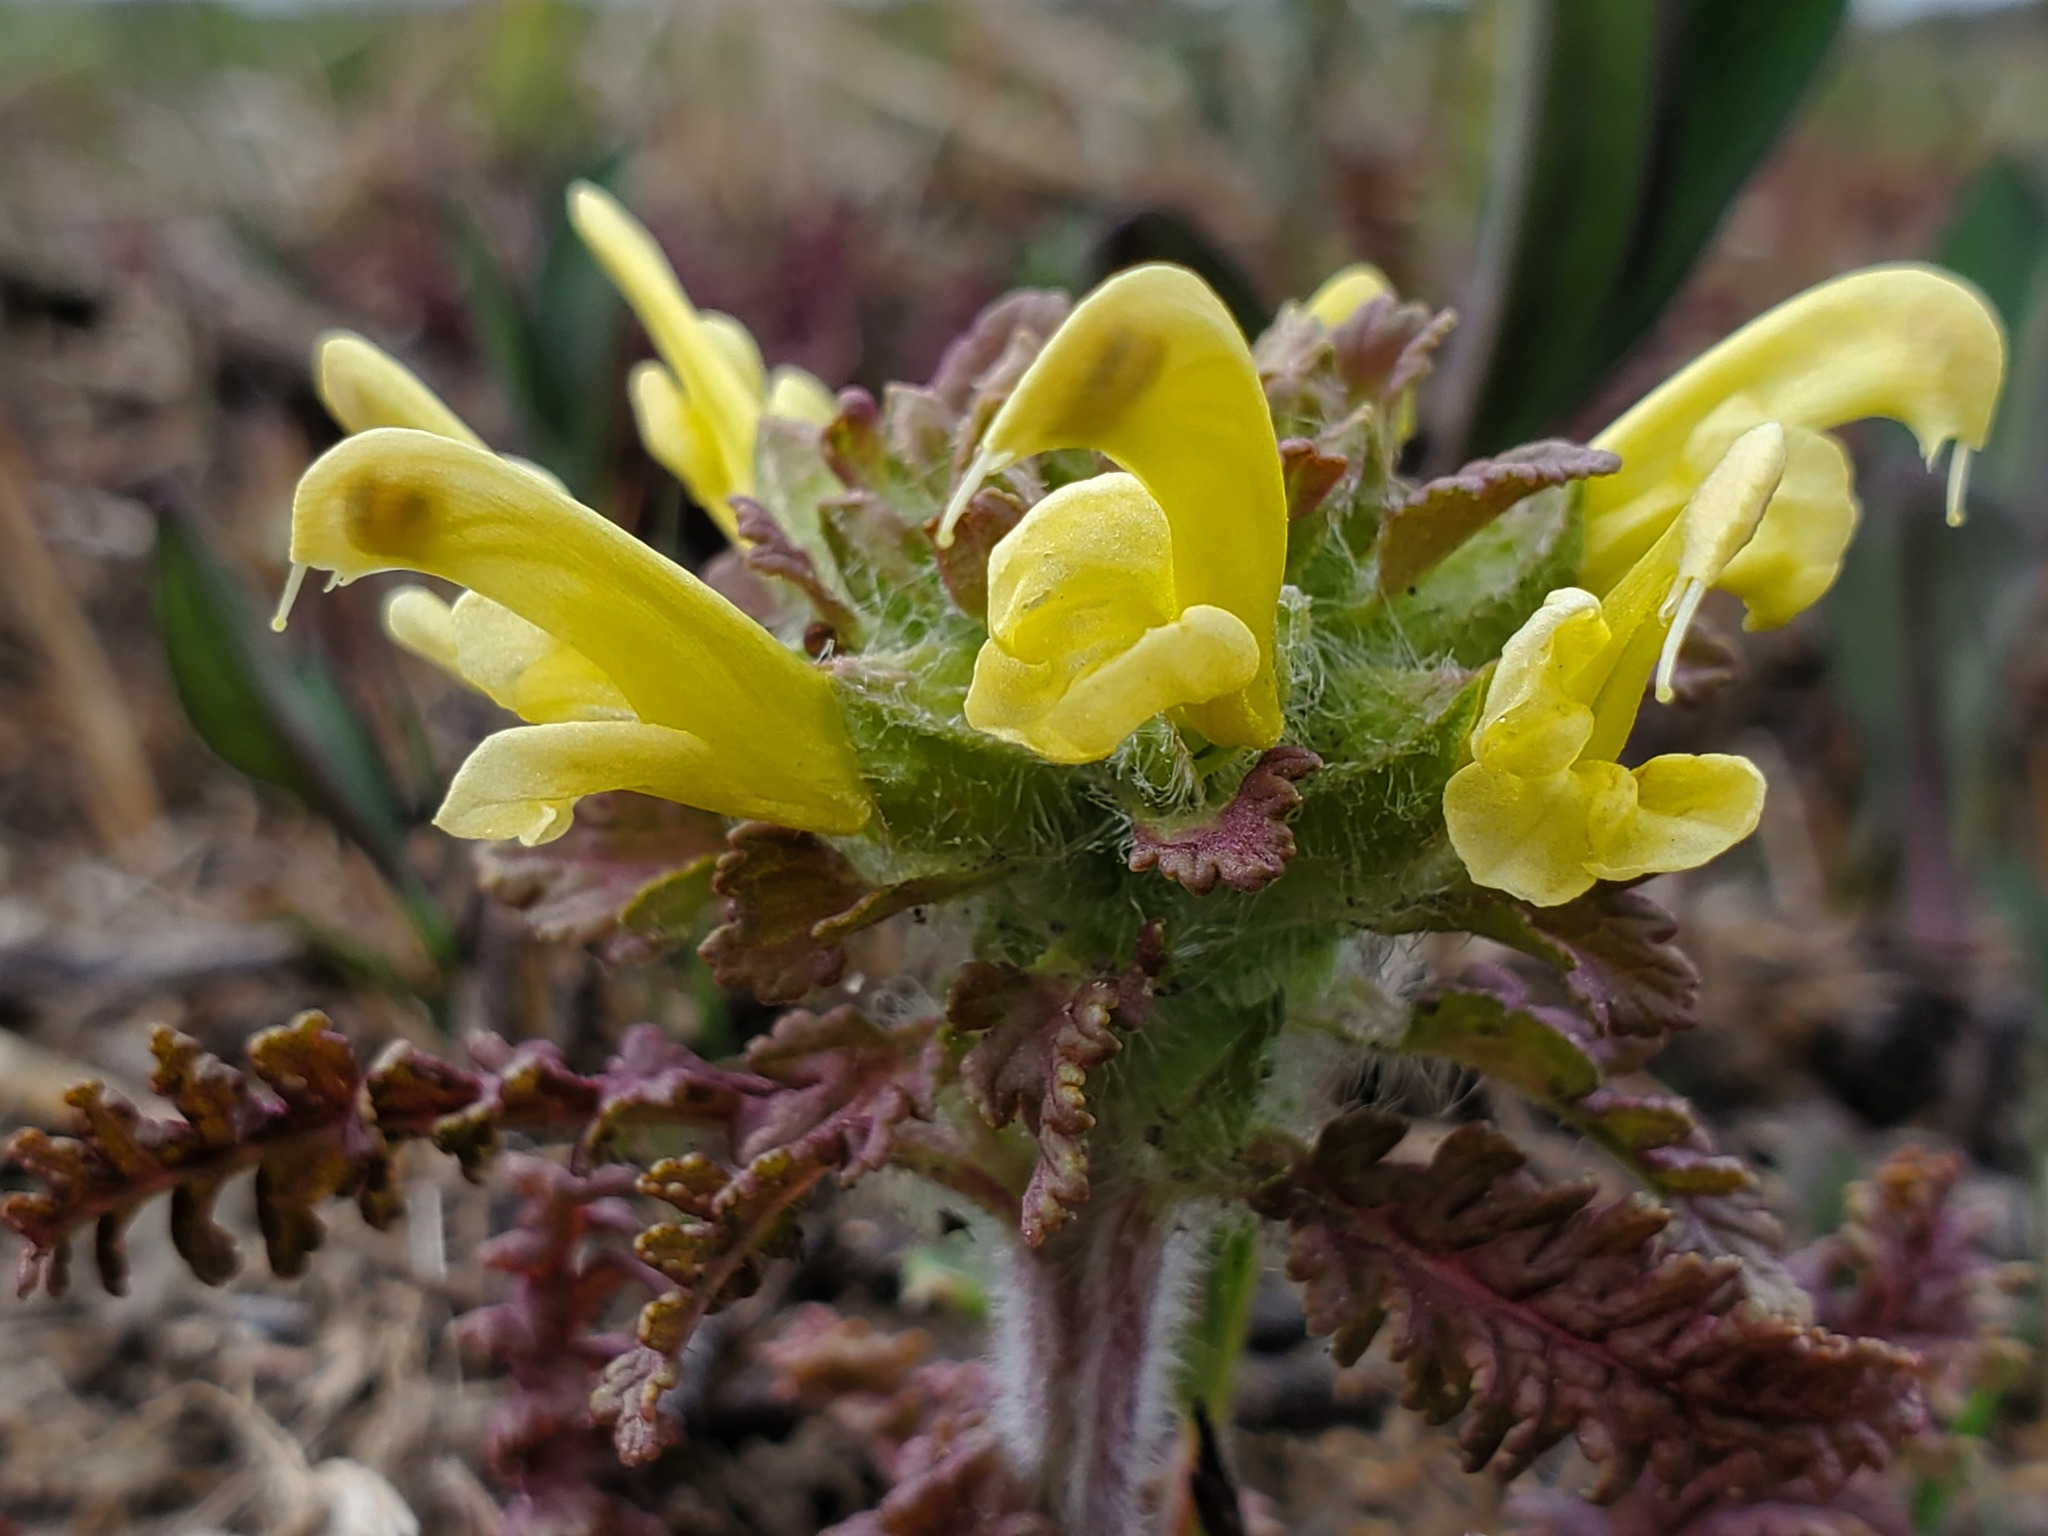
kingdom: Plantae
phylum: Tracheophyta
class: Magnoliopsida
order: Lamiales
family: Orobanchaceae
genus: Pedicularis
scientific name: Pedicularis canadensis
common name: Early lousewort
